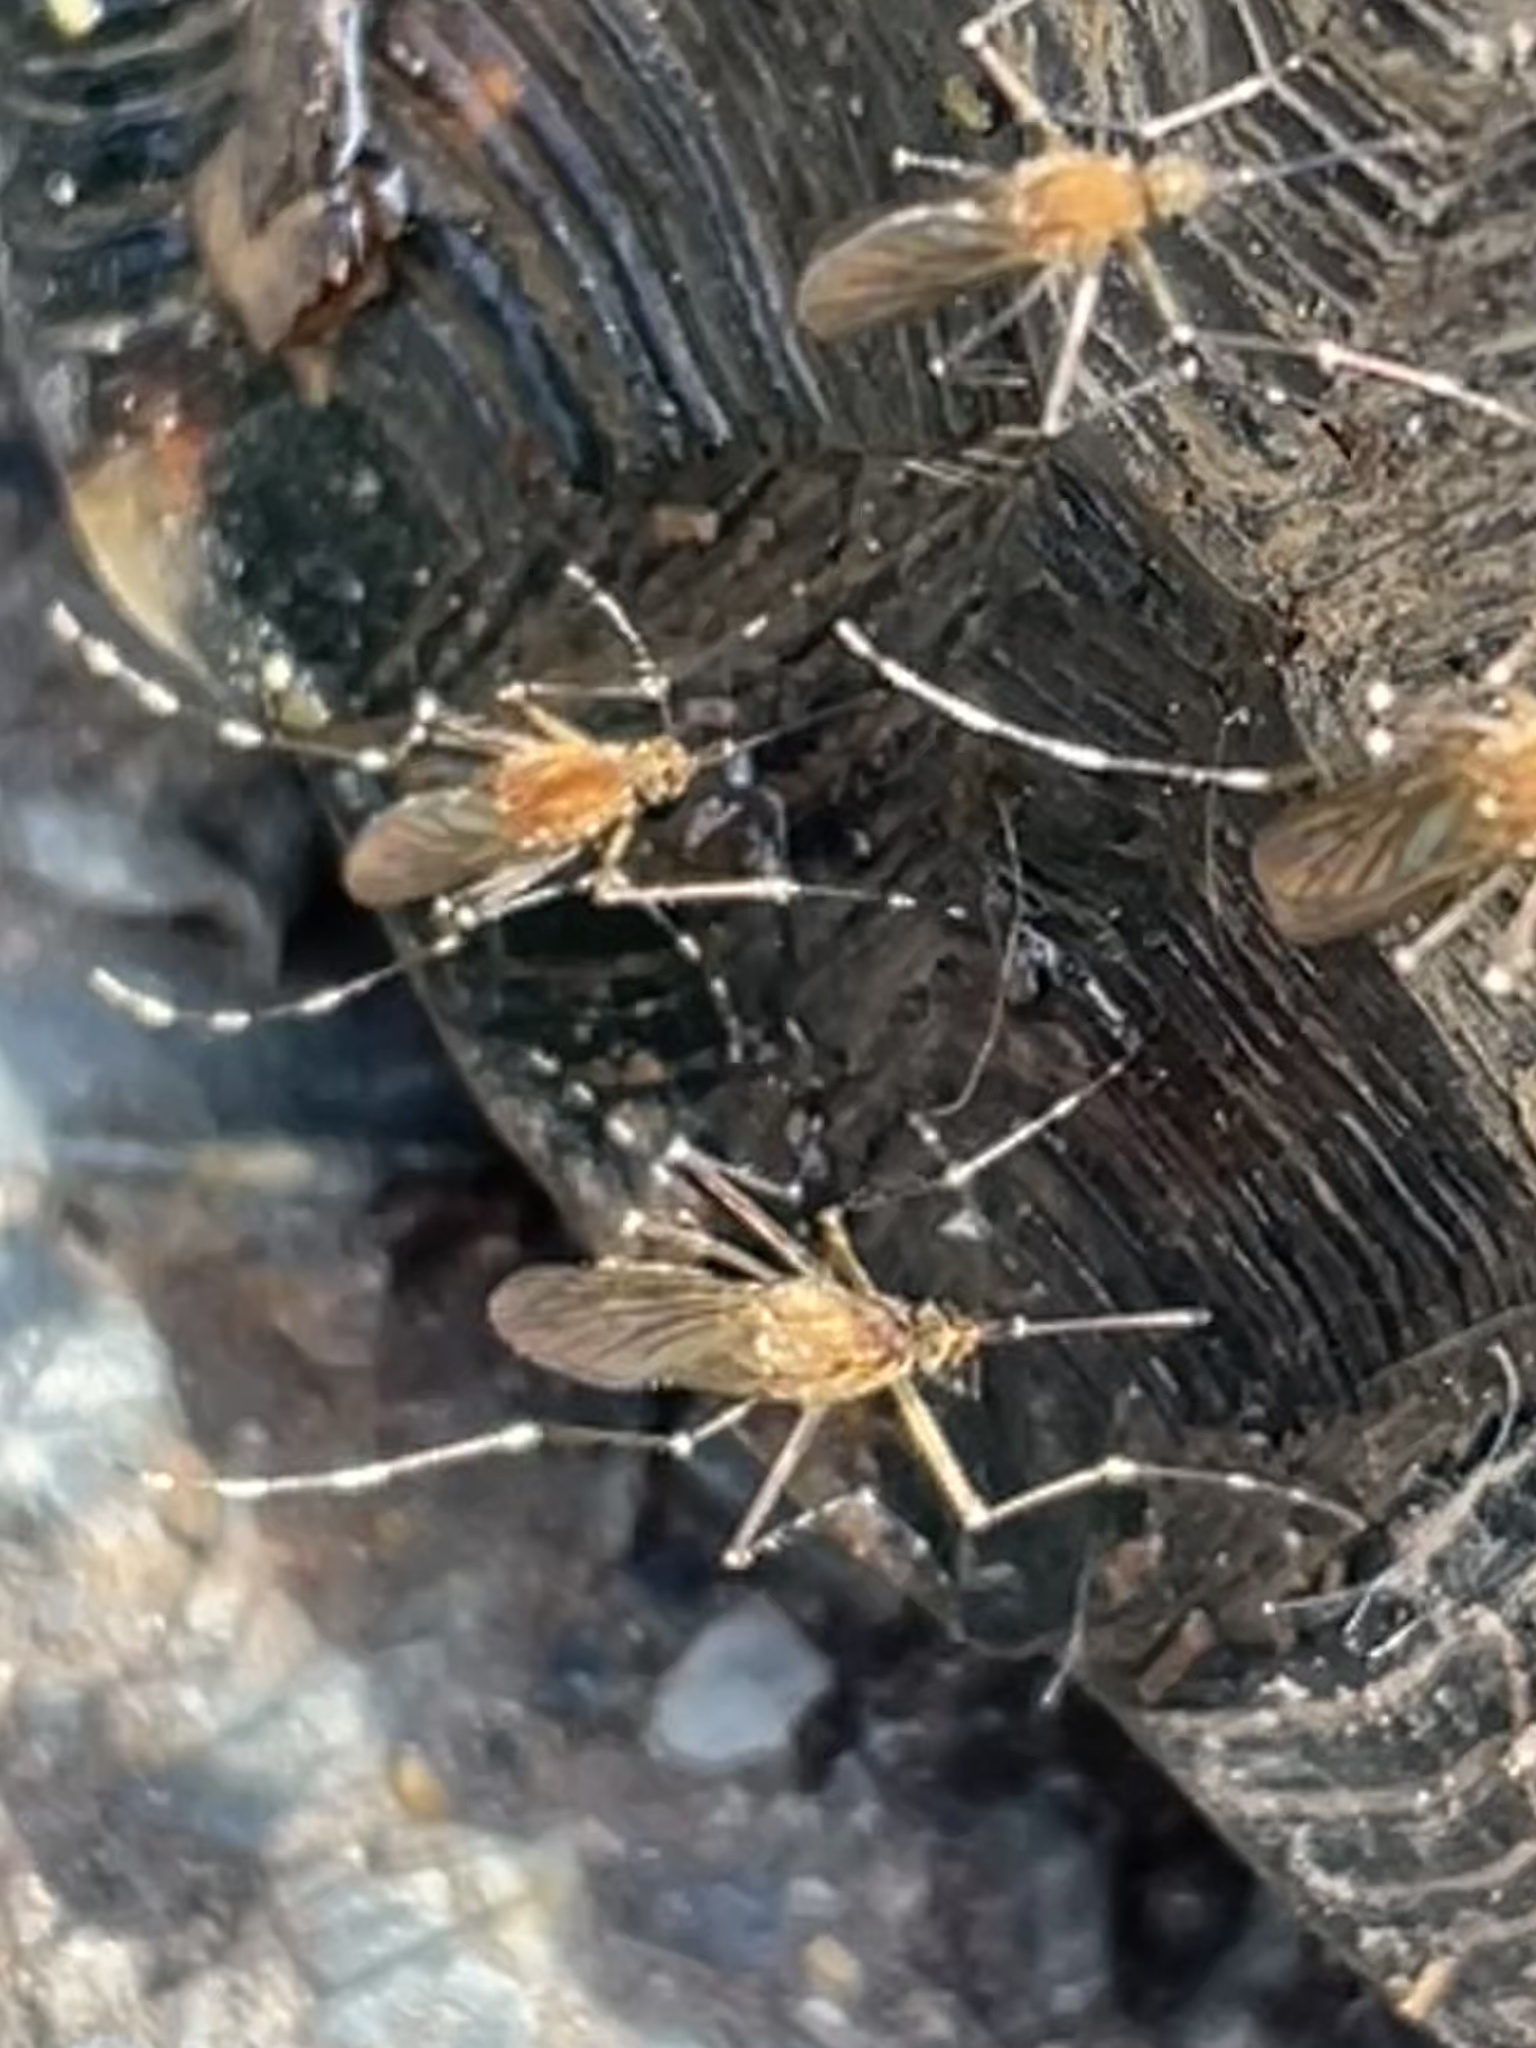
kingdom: Animalia
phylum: Arthropoda
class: Insecta
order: Diptera
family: Culicidae
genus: Aedes
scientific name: Aedes canadensis
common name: Woodland pool mosquito
